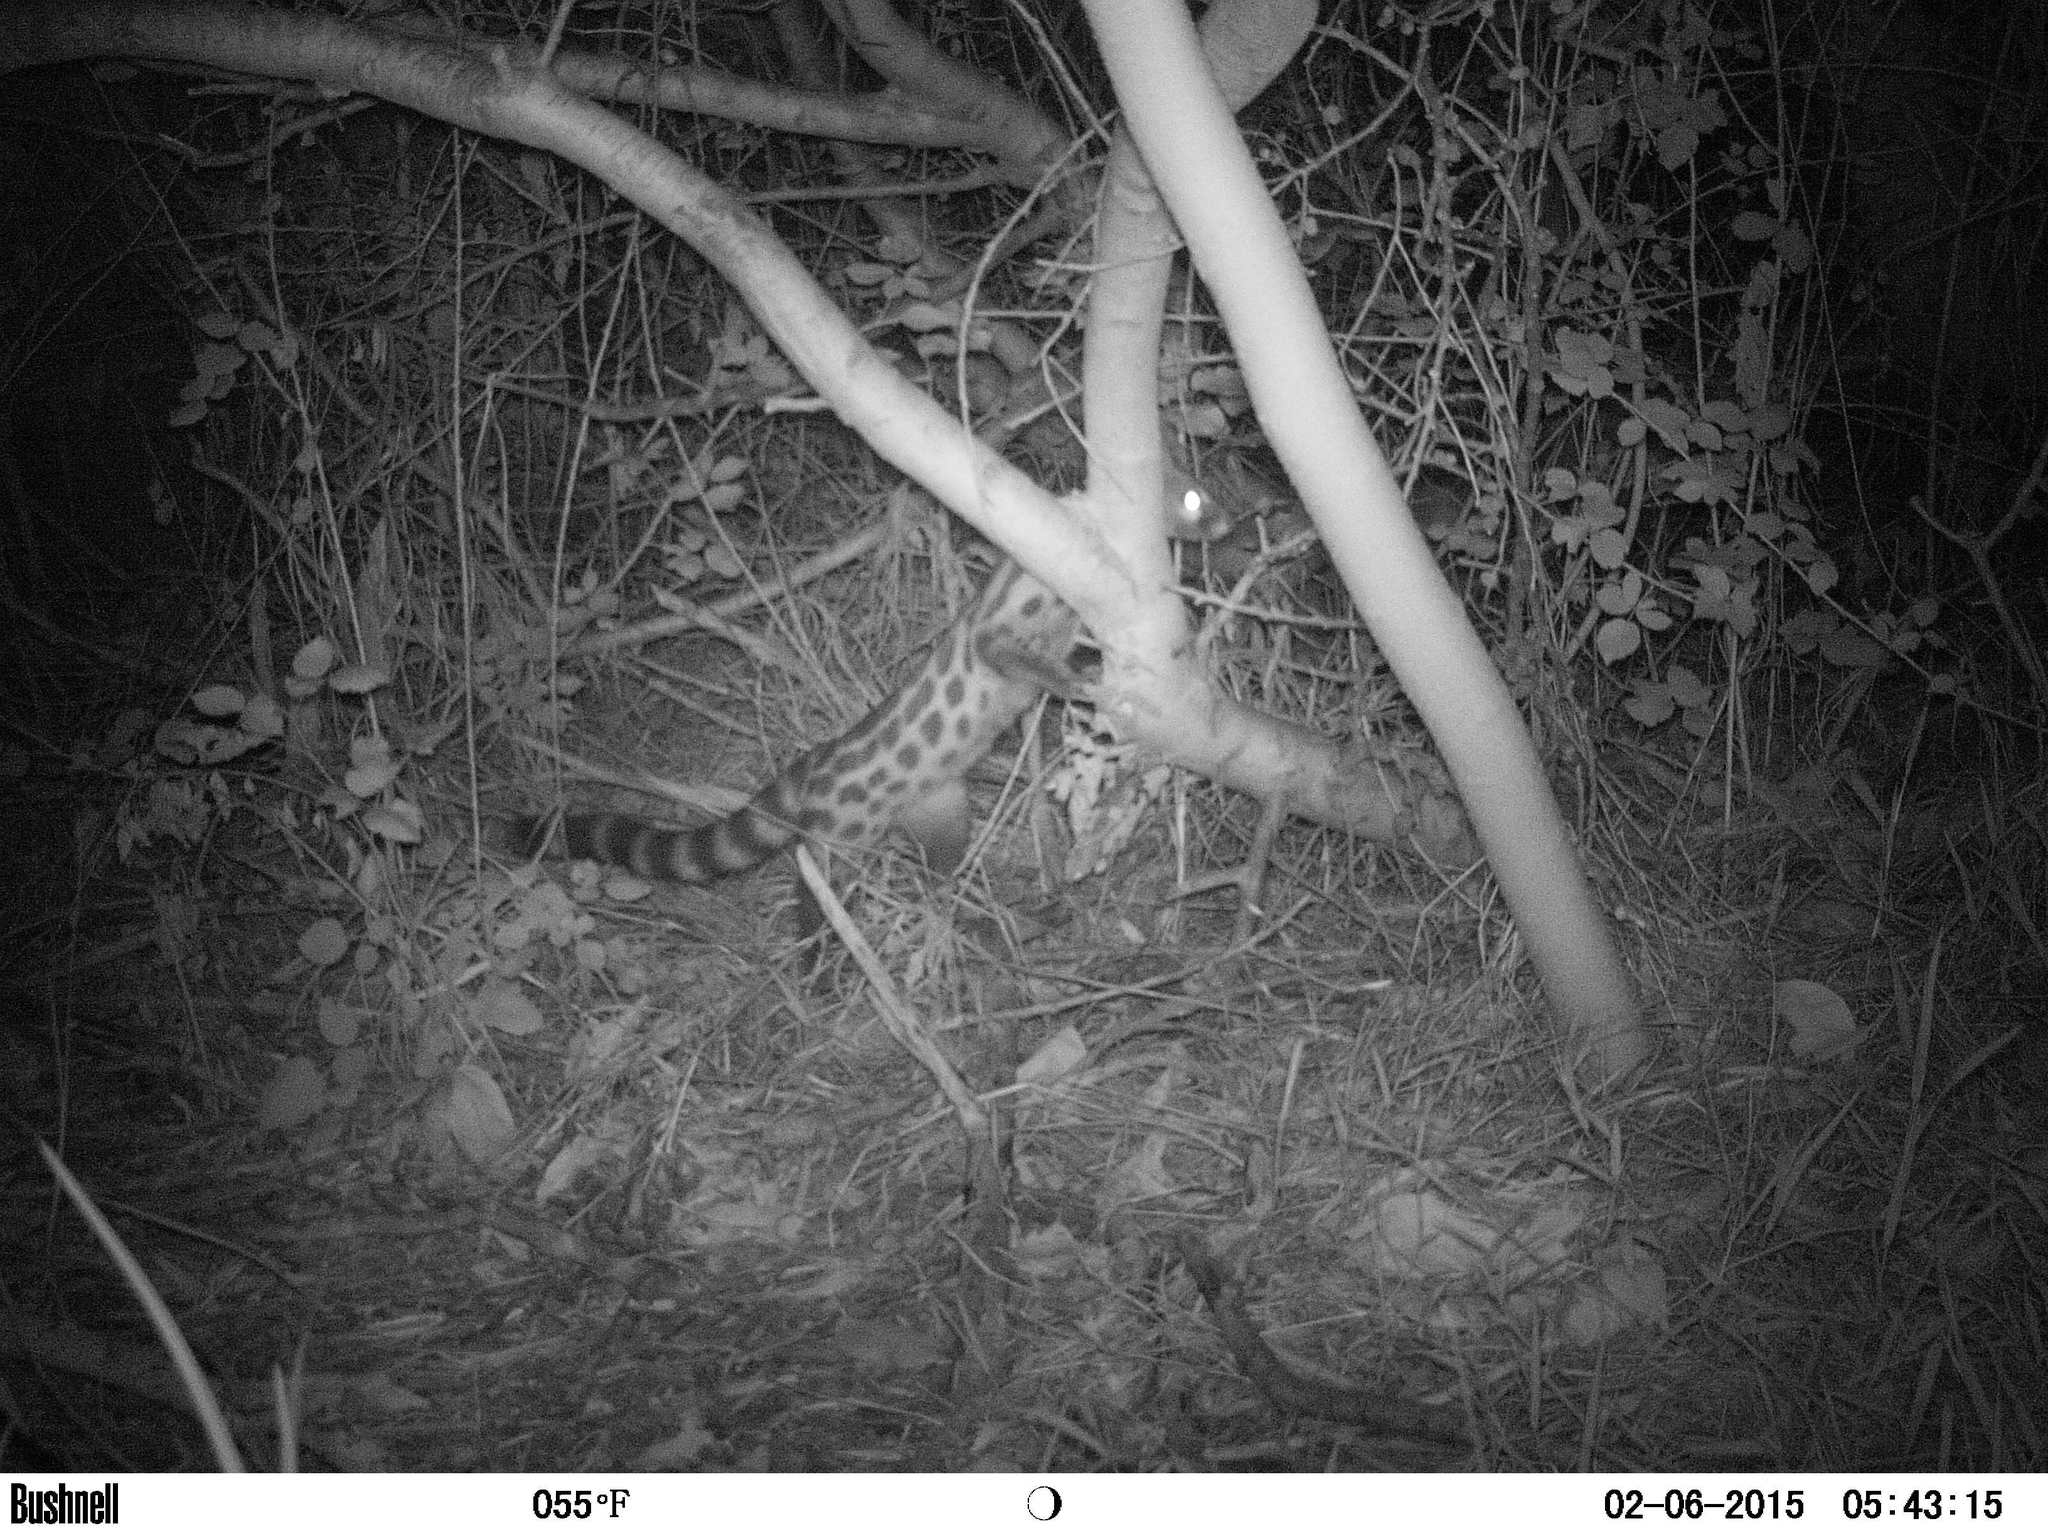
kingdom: Animalia
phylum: Chordata
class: Mammalia
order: Carnivora
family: Viverridae
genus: Genetta
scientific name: Genetta tigrina
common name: Cape genet
